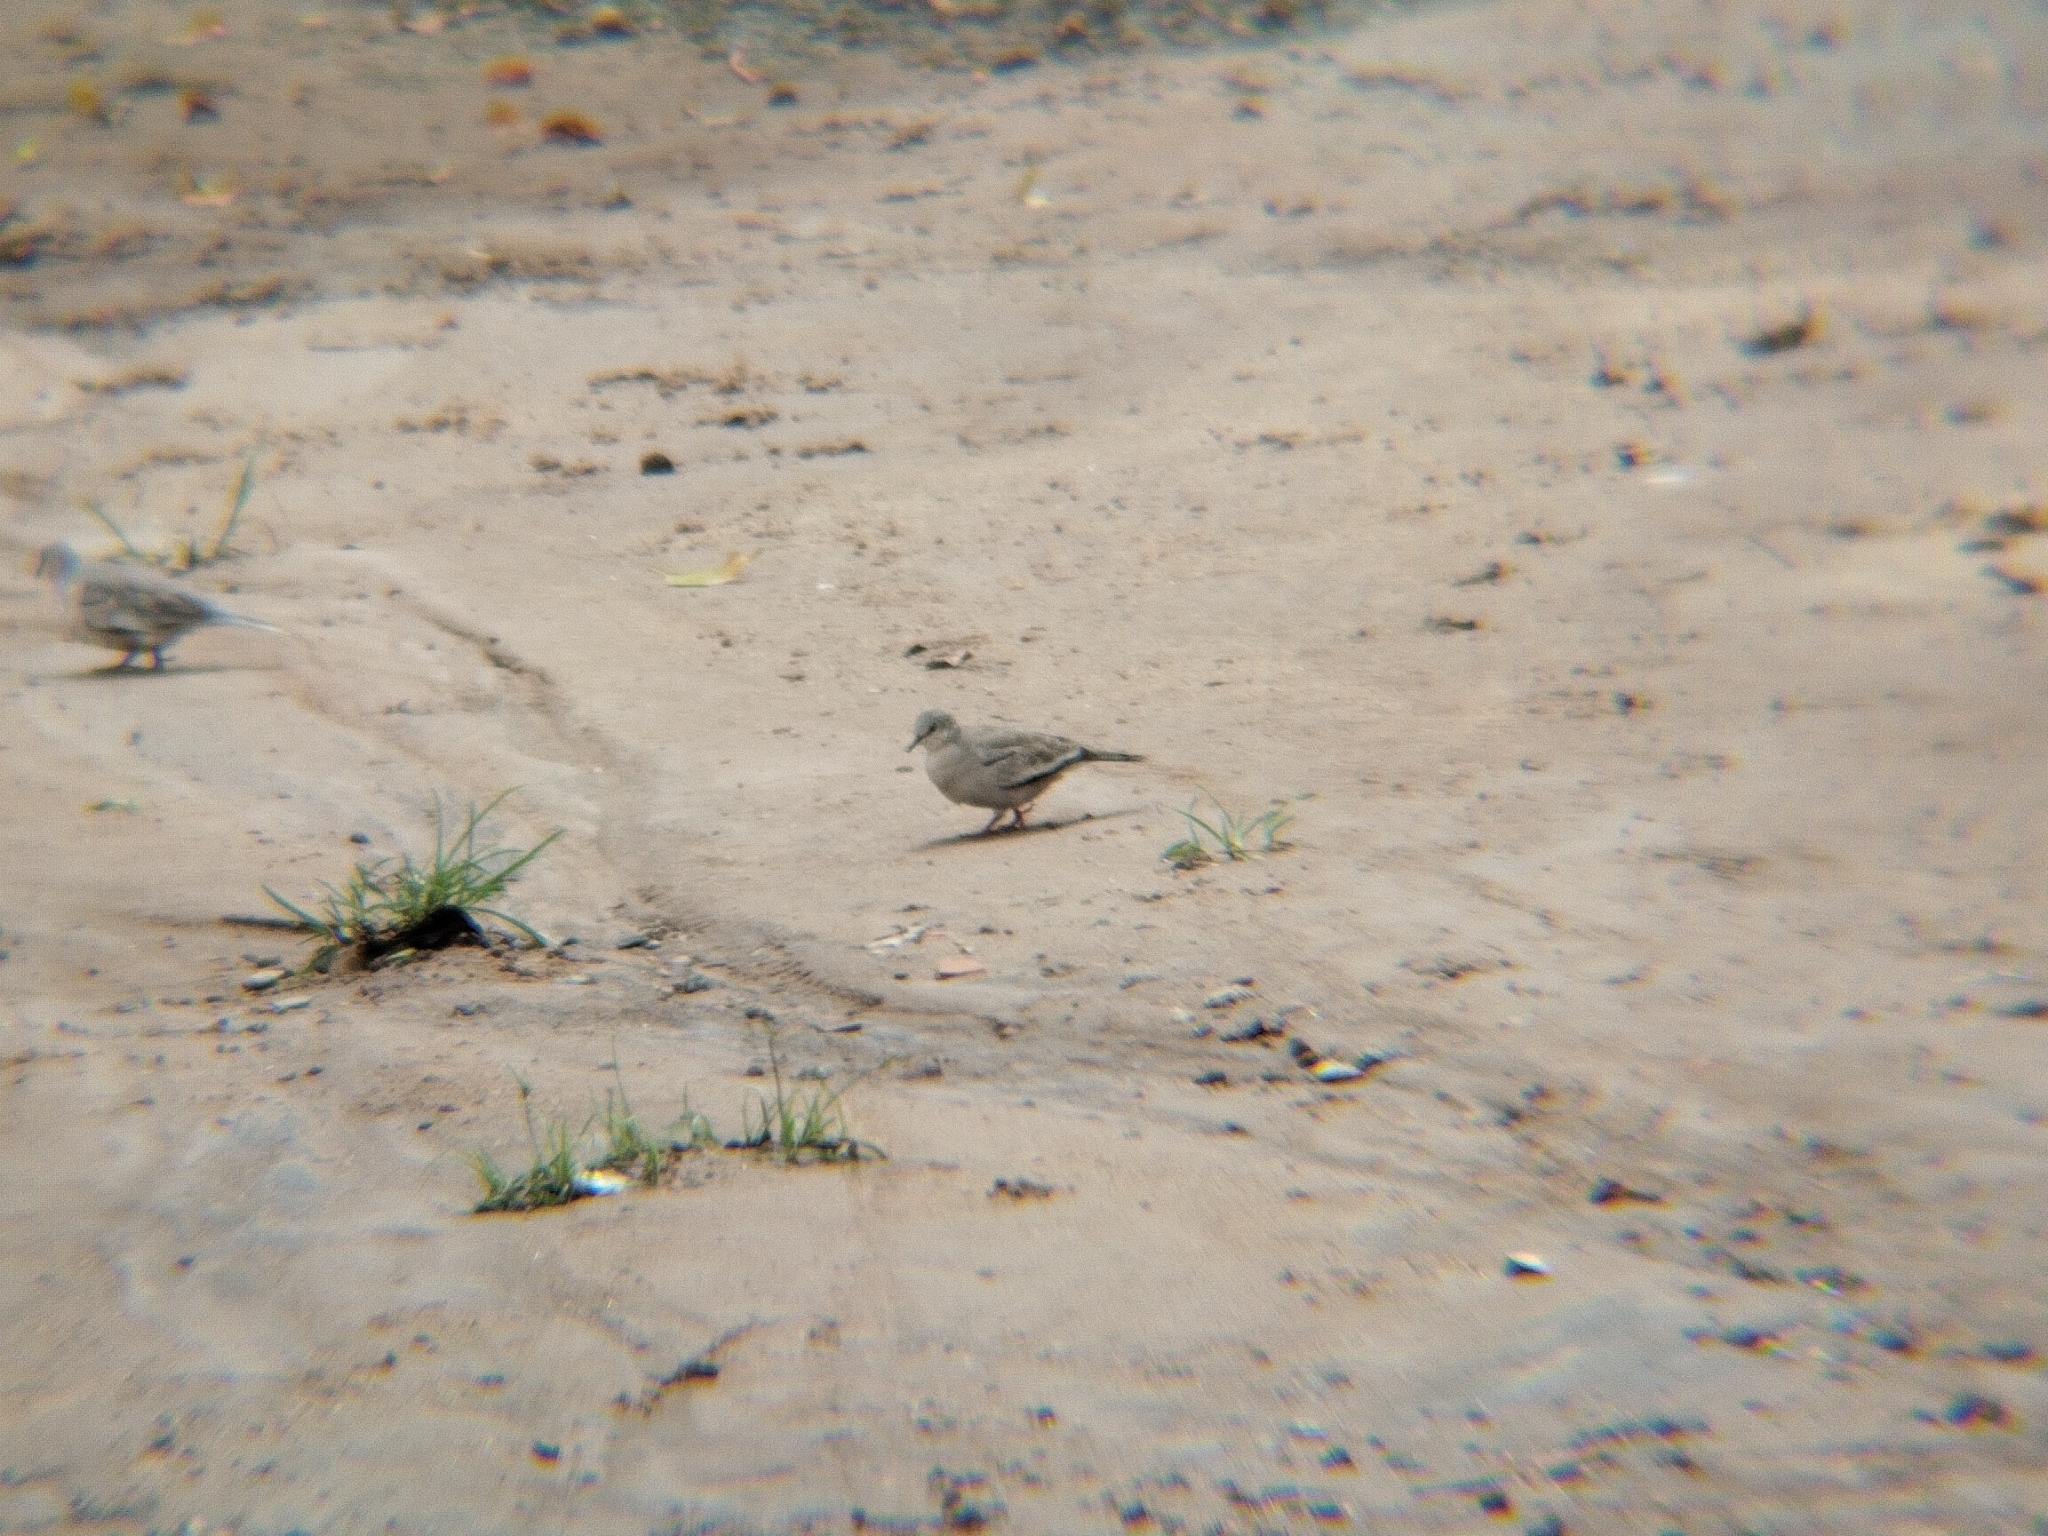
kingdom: Animalia
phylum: Chordata
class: Aves
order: Columbiformes
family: Columbidae
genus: Columbina
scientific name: Columbina picui
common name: Picui ground dove
